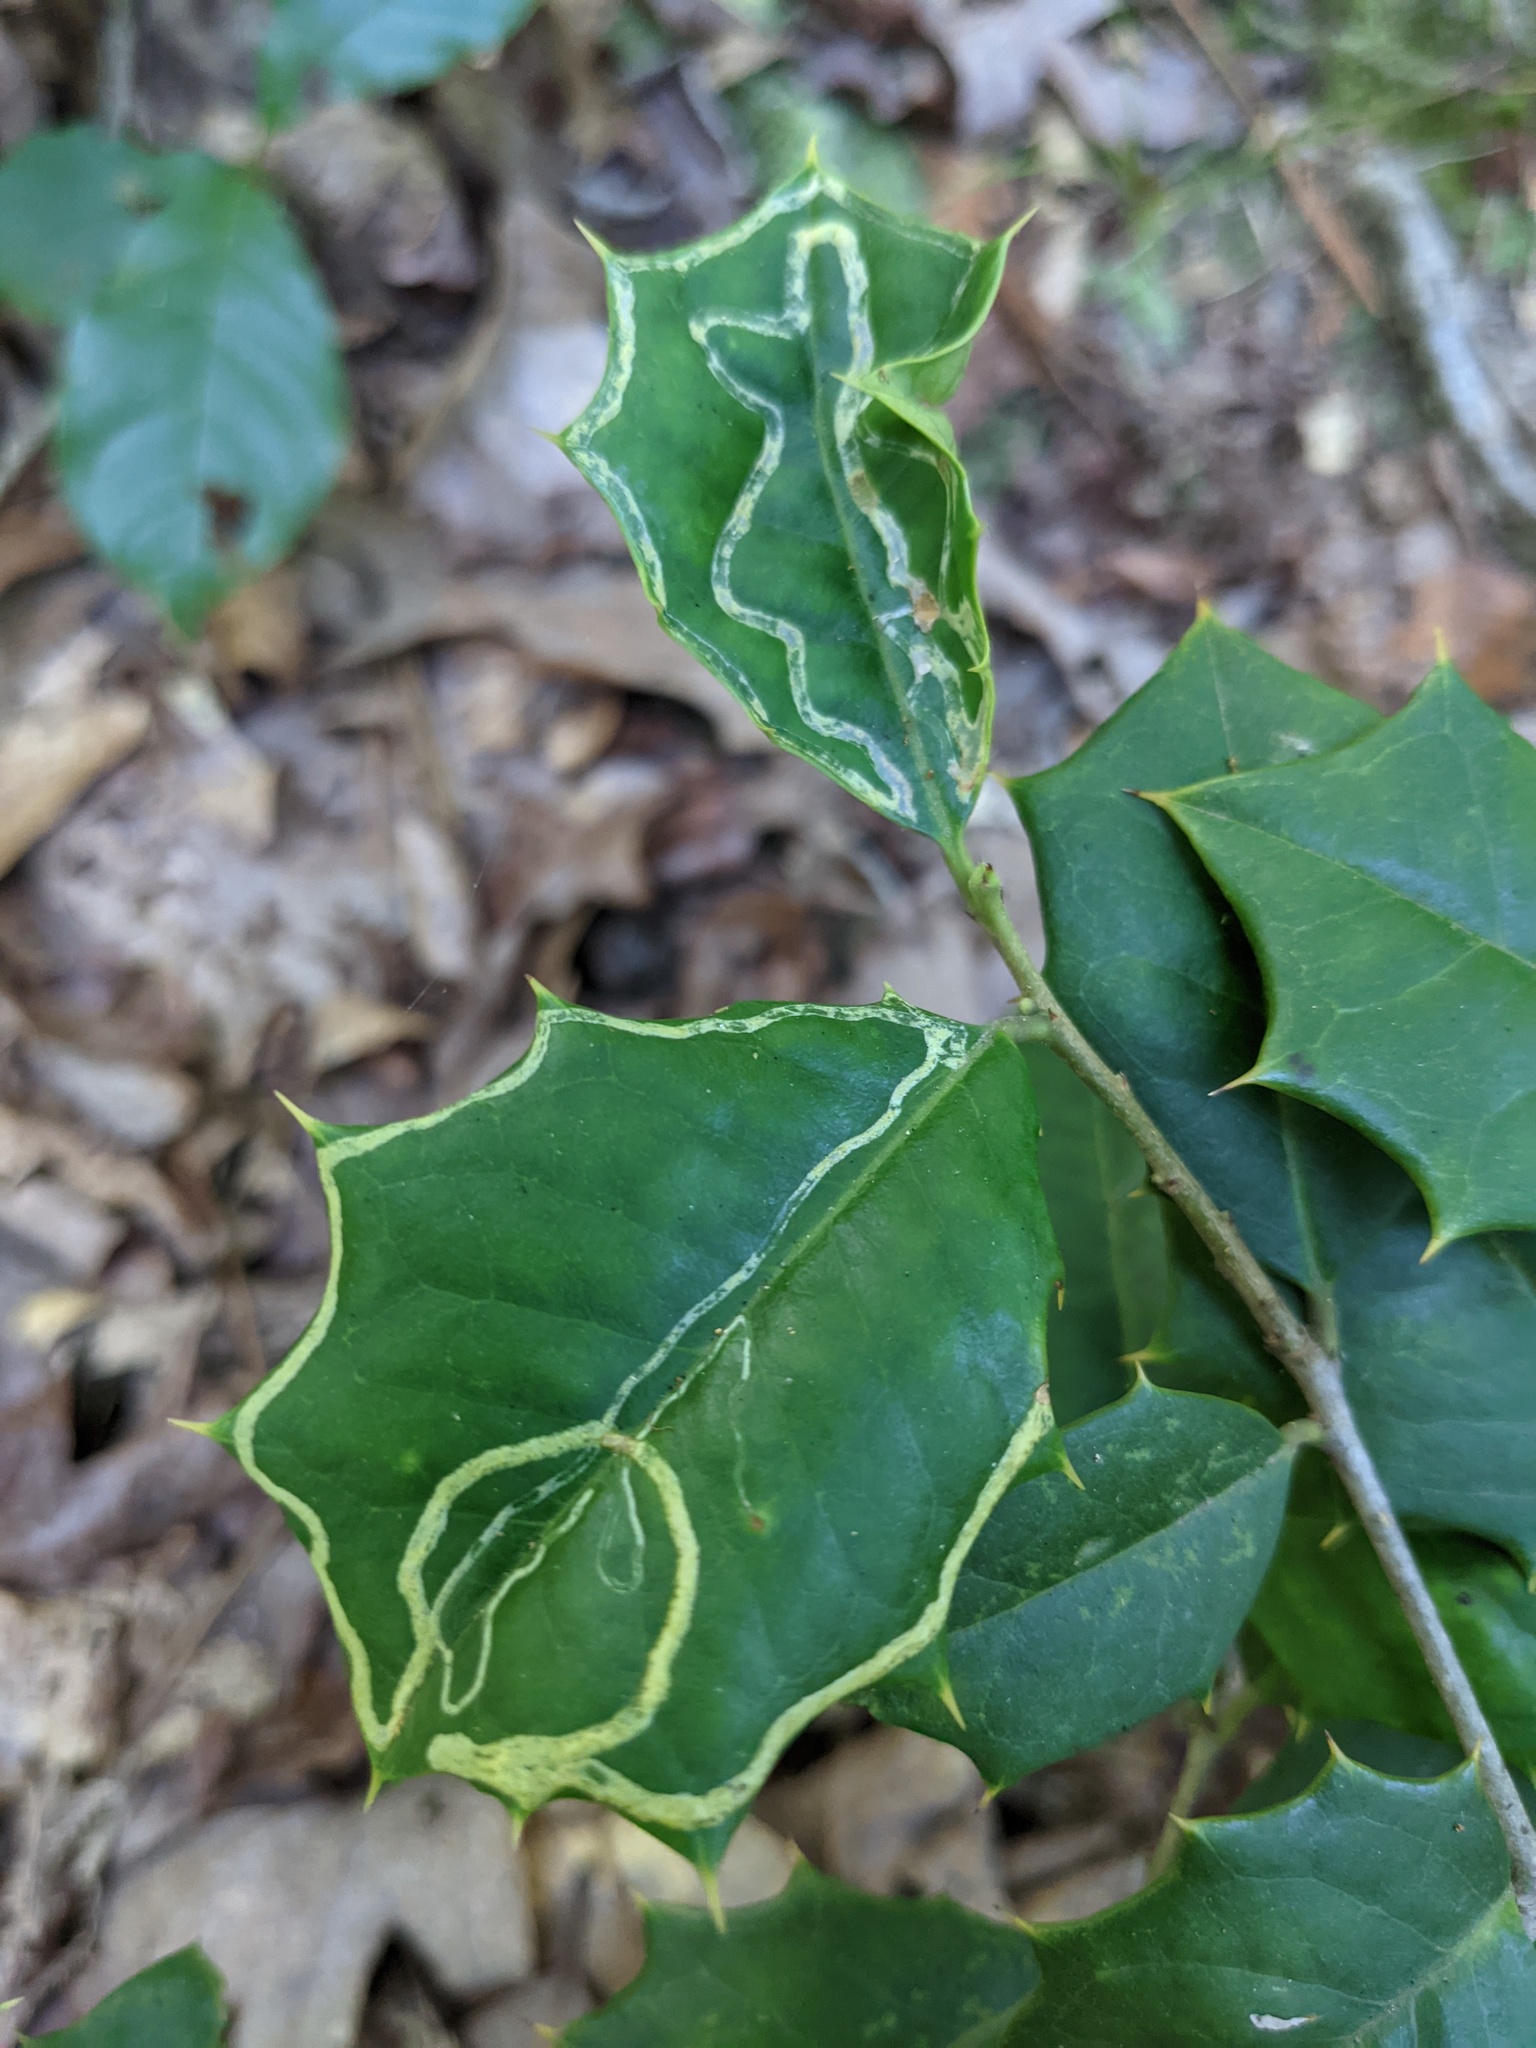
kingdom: Animalia
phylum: Arthropoda
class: Insecta
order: Diptera
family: Agromyzidae
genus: Phytomyza
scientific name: Phytomyza opacae
